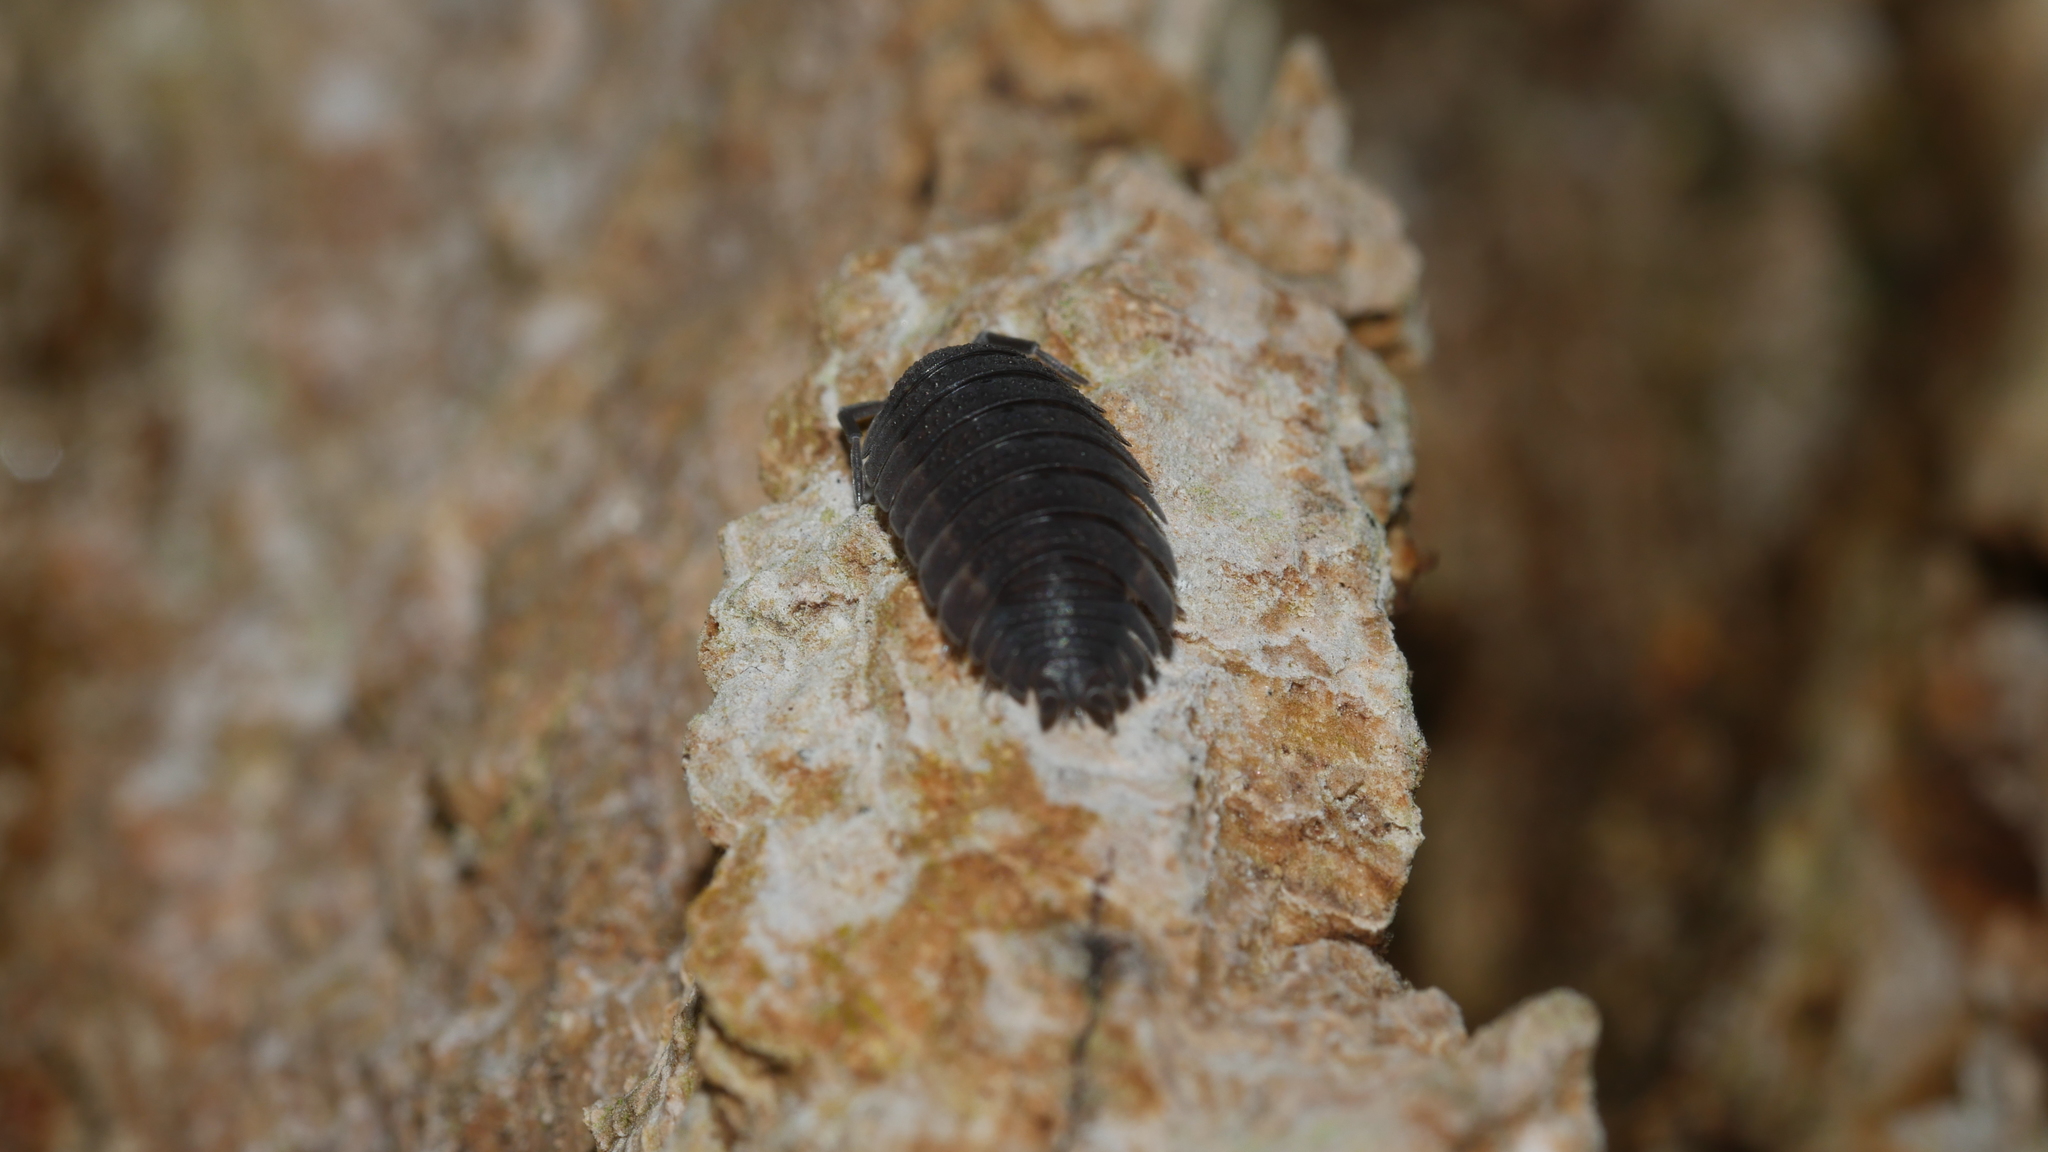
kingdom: Animalia
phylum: Arthropoda
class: Malacostraca
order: Isopoda
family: Porcellionidae
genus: Porcellio
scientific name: Porcellio scaber
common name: Common rough woodlouse
